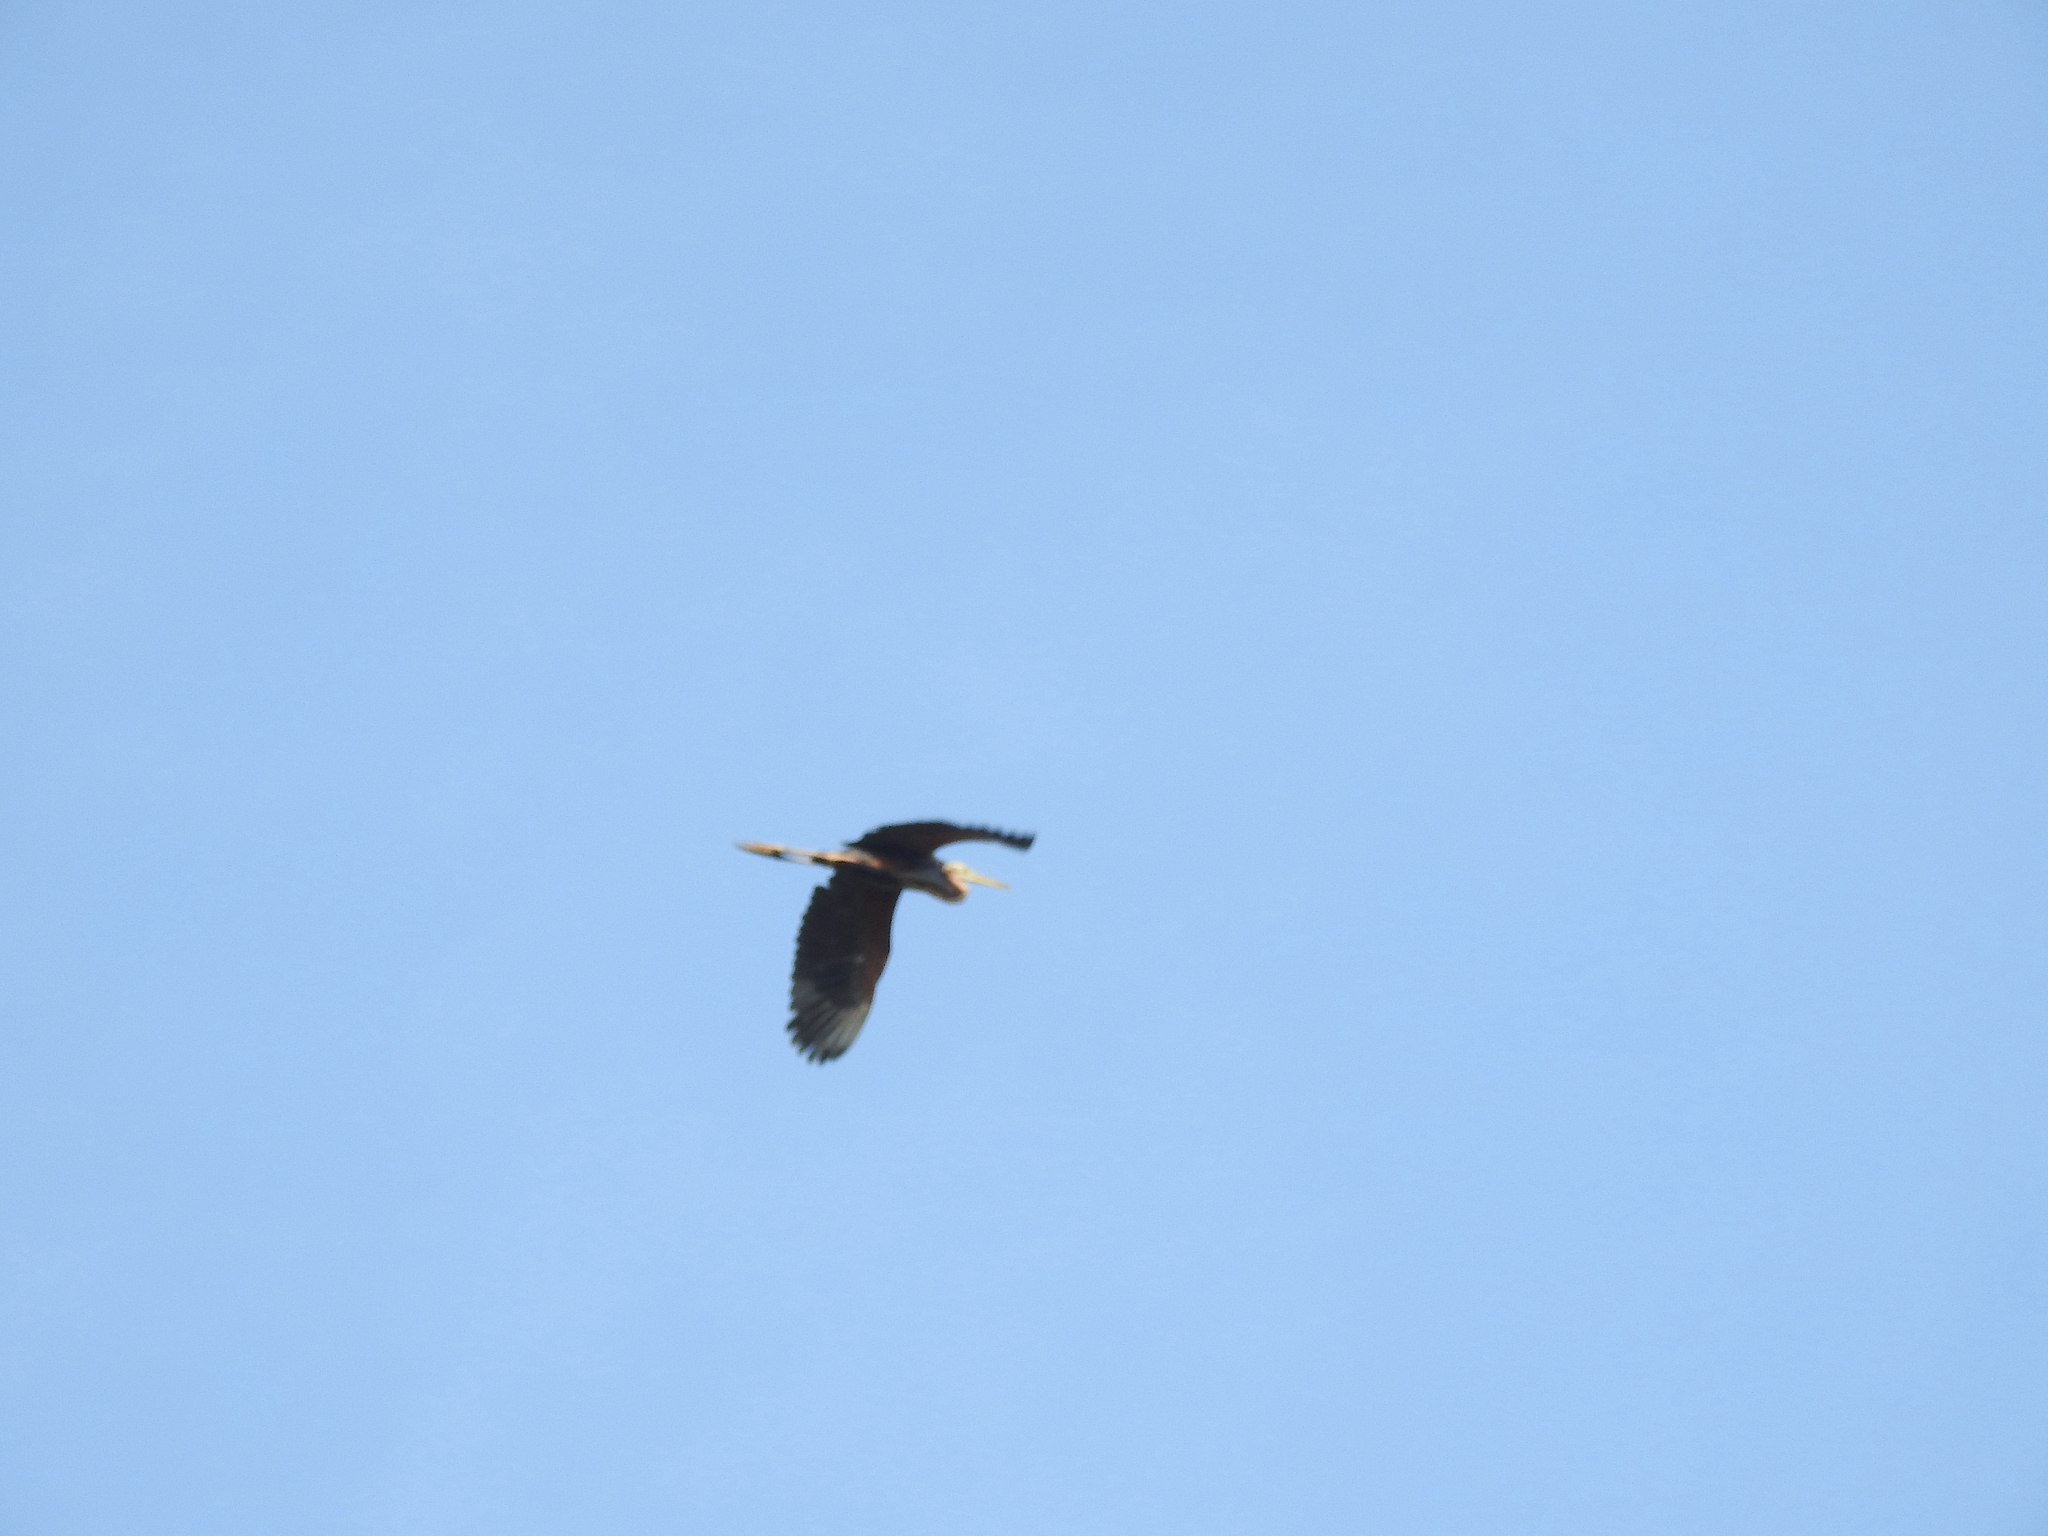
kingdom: Animalia
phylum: Chordata
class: Aves
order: Pelecaniformes
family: Ardeidae
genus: Ardea
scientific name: Ardea purpurea
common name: Purple heron
